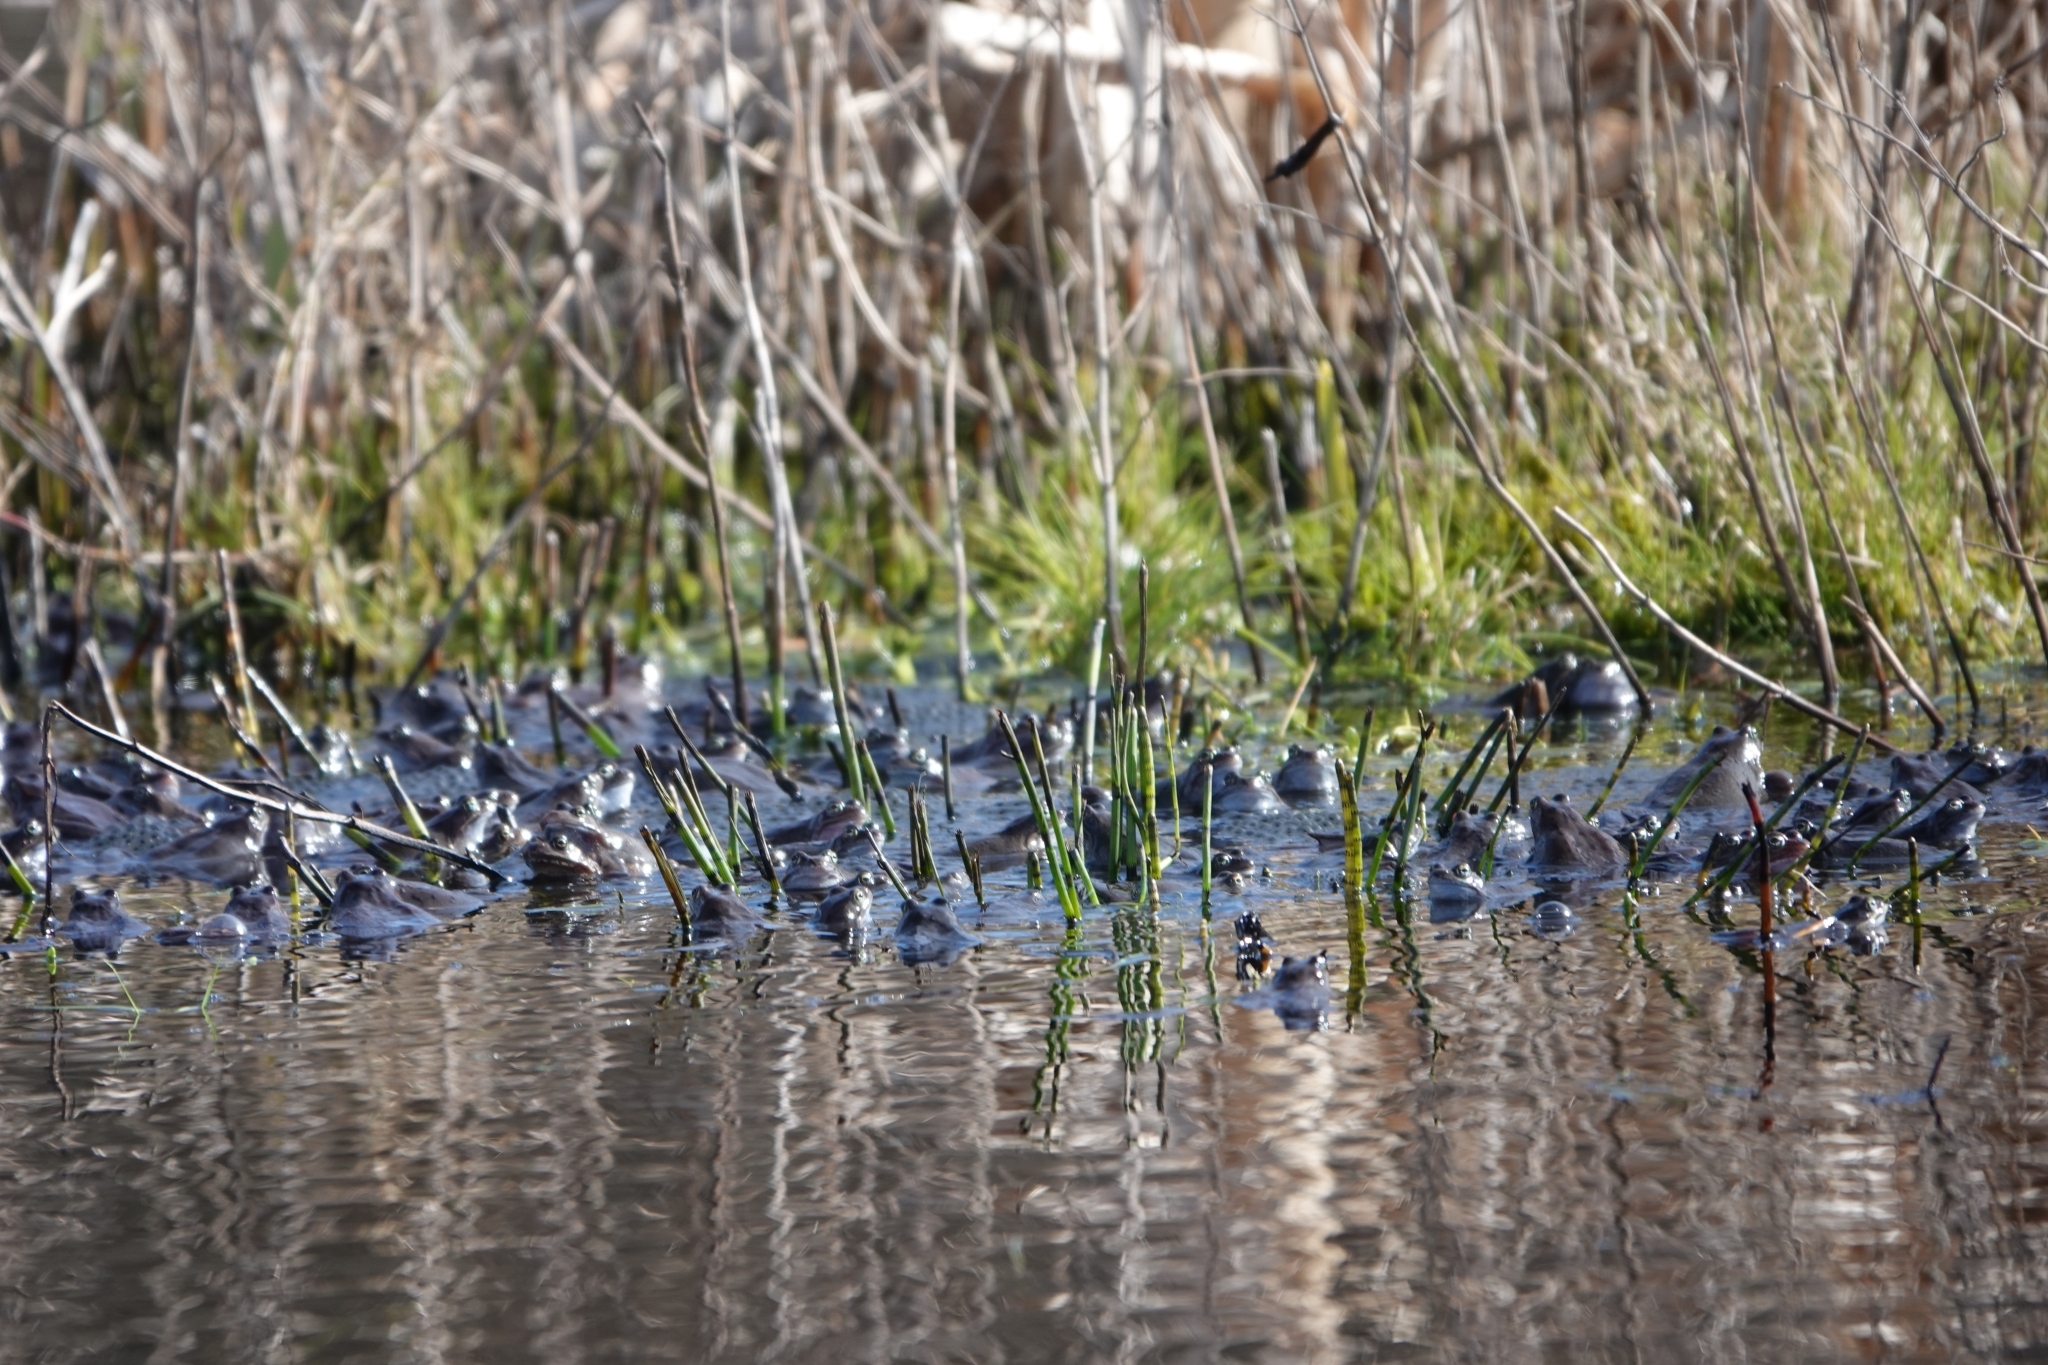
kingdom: Animalia
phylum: Chordata
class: Amphibia
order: Anura
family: Ranidae
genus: Rana
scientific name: Rana temporaria
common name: Common frog
